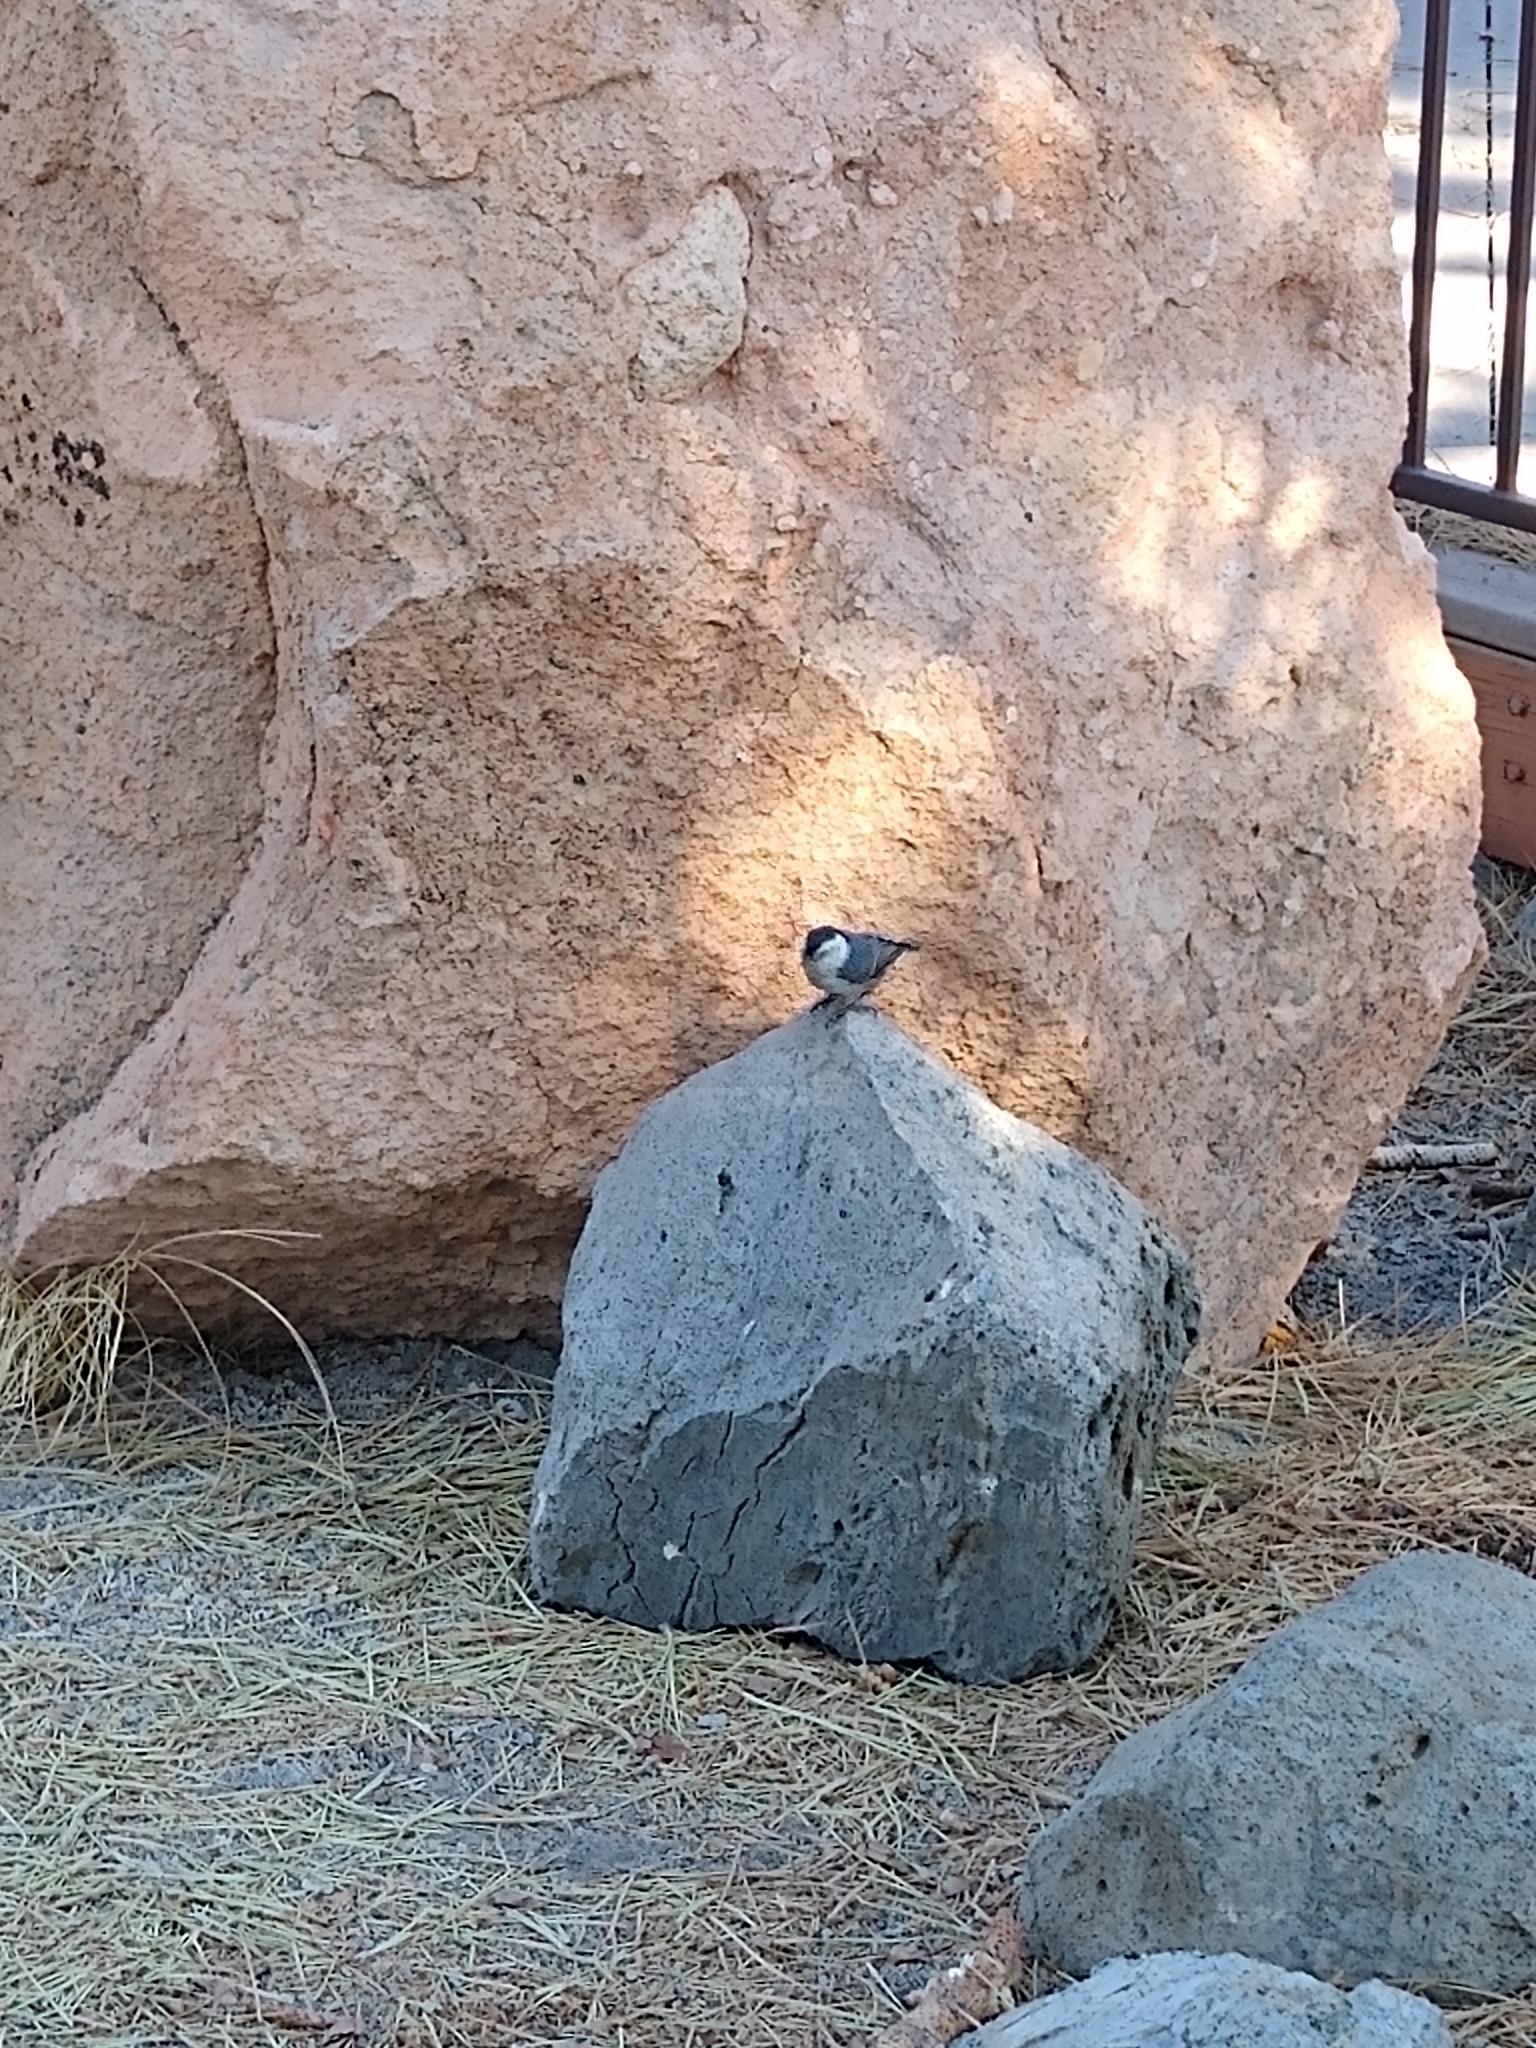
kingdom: Animalia
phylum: Chordata
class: Aves
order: Passeriformes
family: Sittidae
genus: Sitta
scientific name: Sitta carolinensis
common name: White-breasted nuthatch
